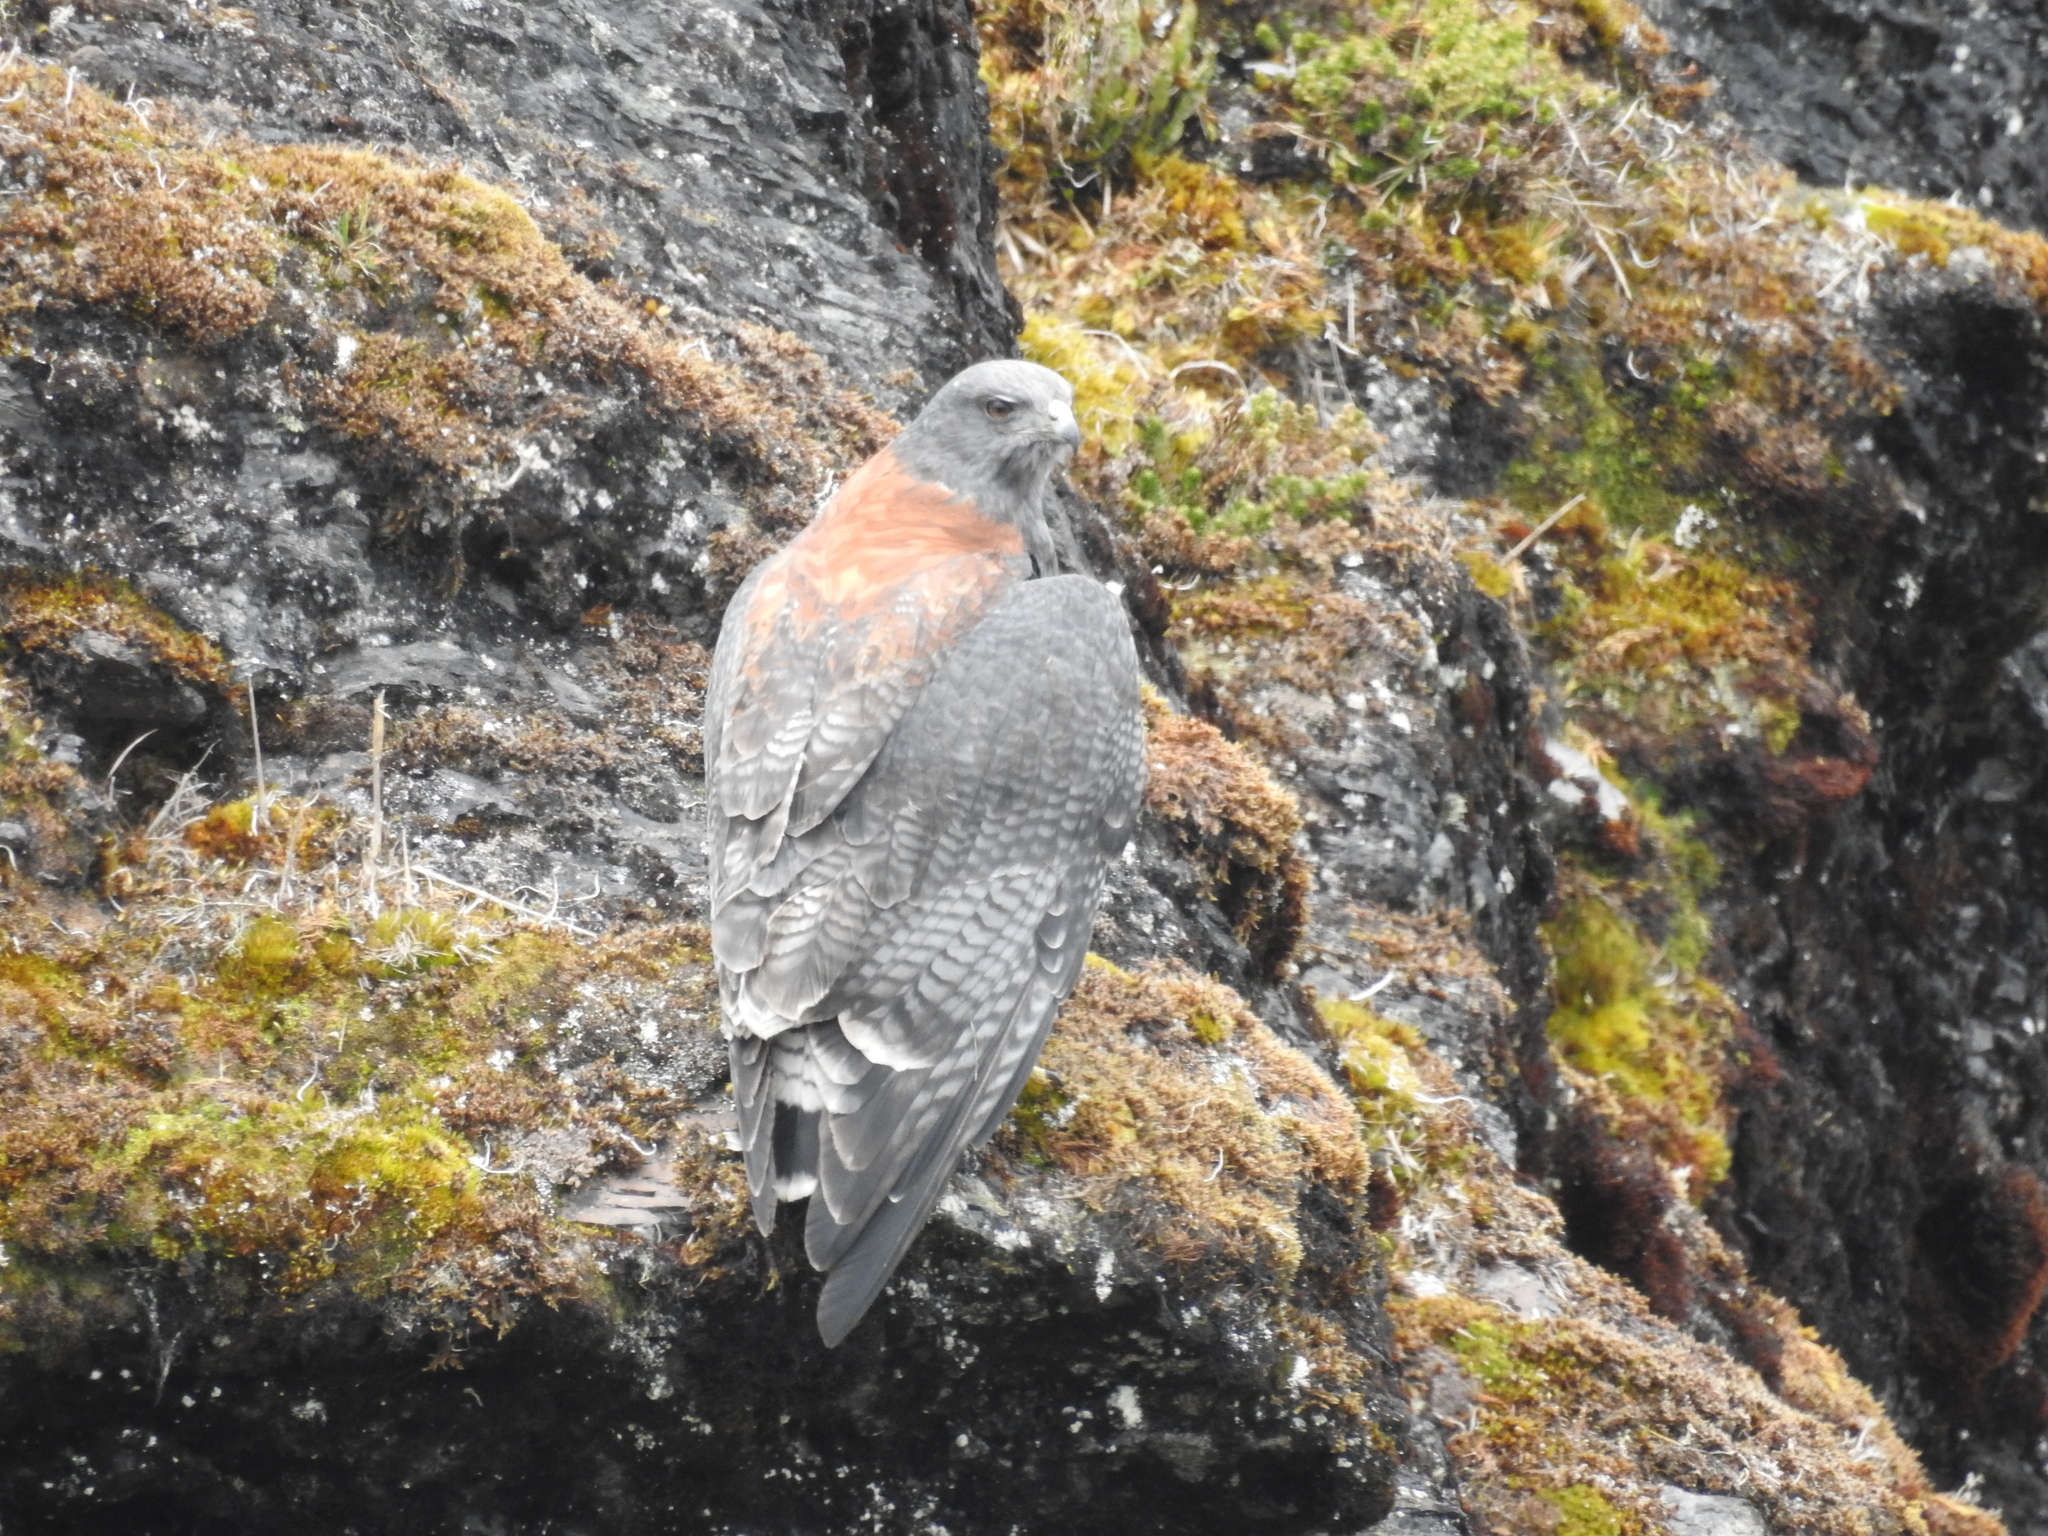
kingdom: Animalia
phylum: Chordata
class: Aves
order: Accipitriformes
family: Accipitridae
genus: Buteo
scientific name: Buteo polyosoma
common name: Variable hawk
